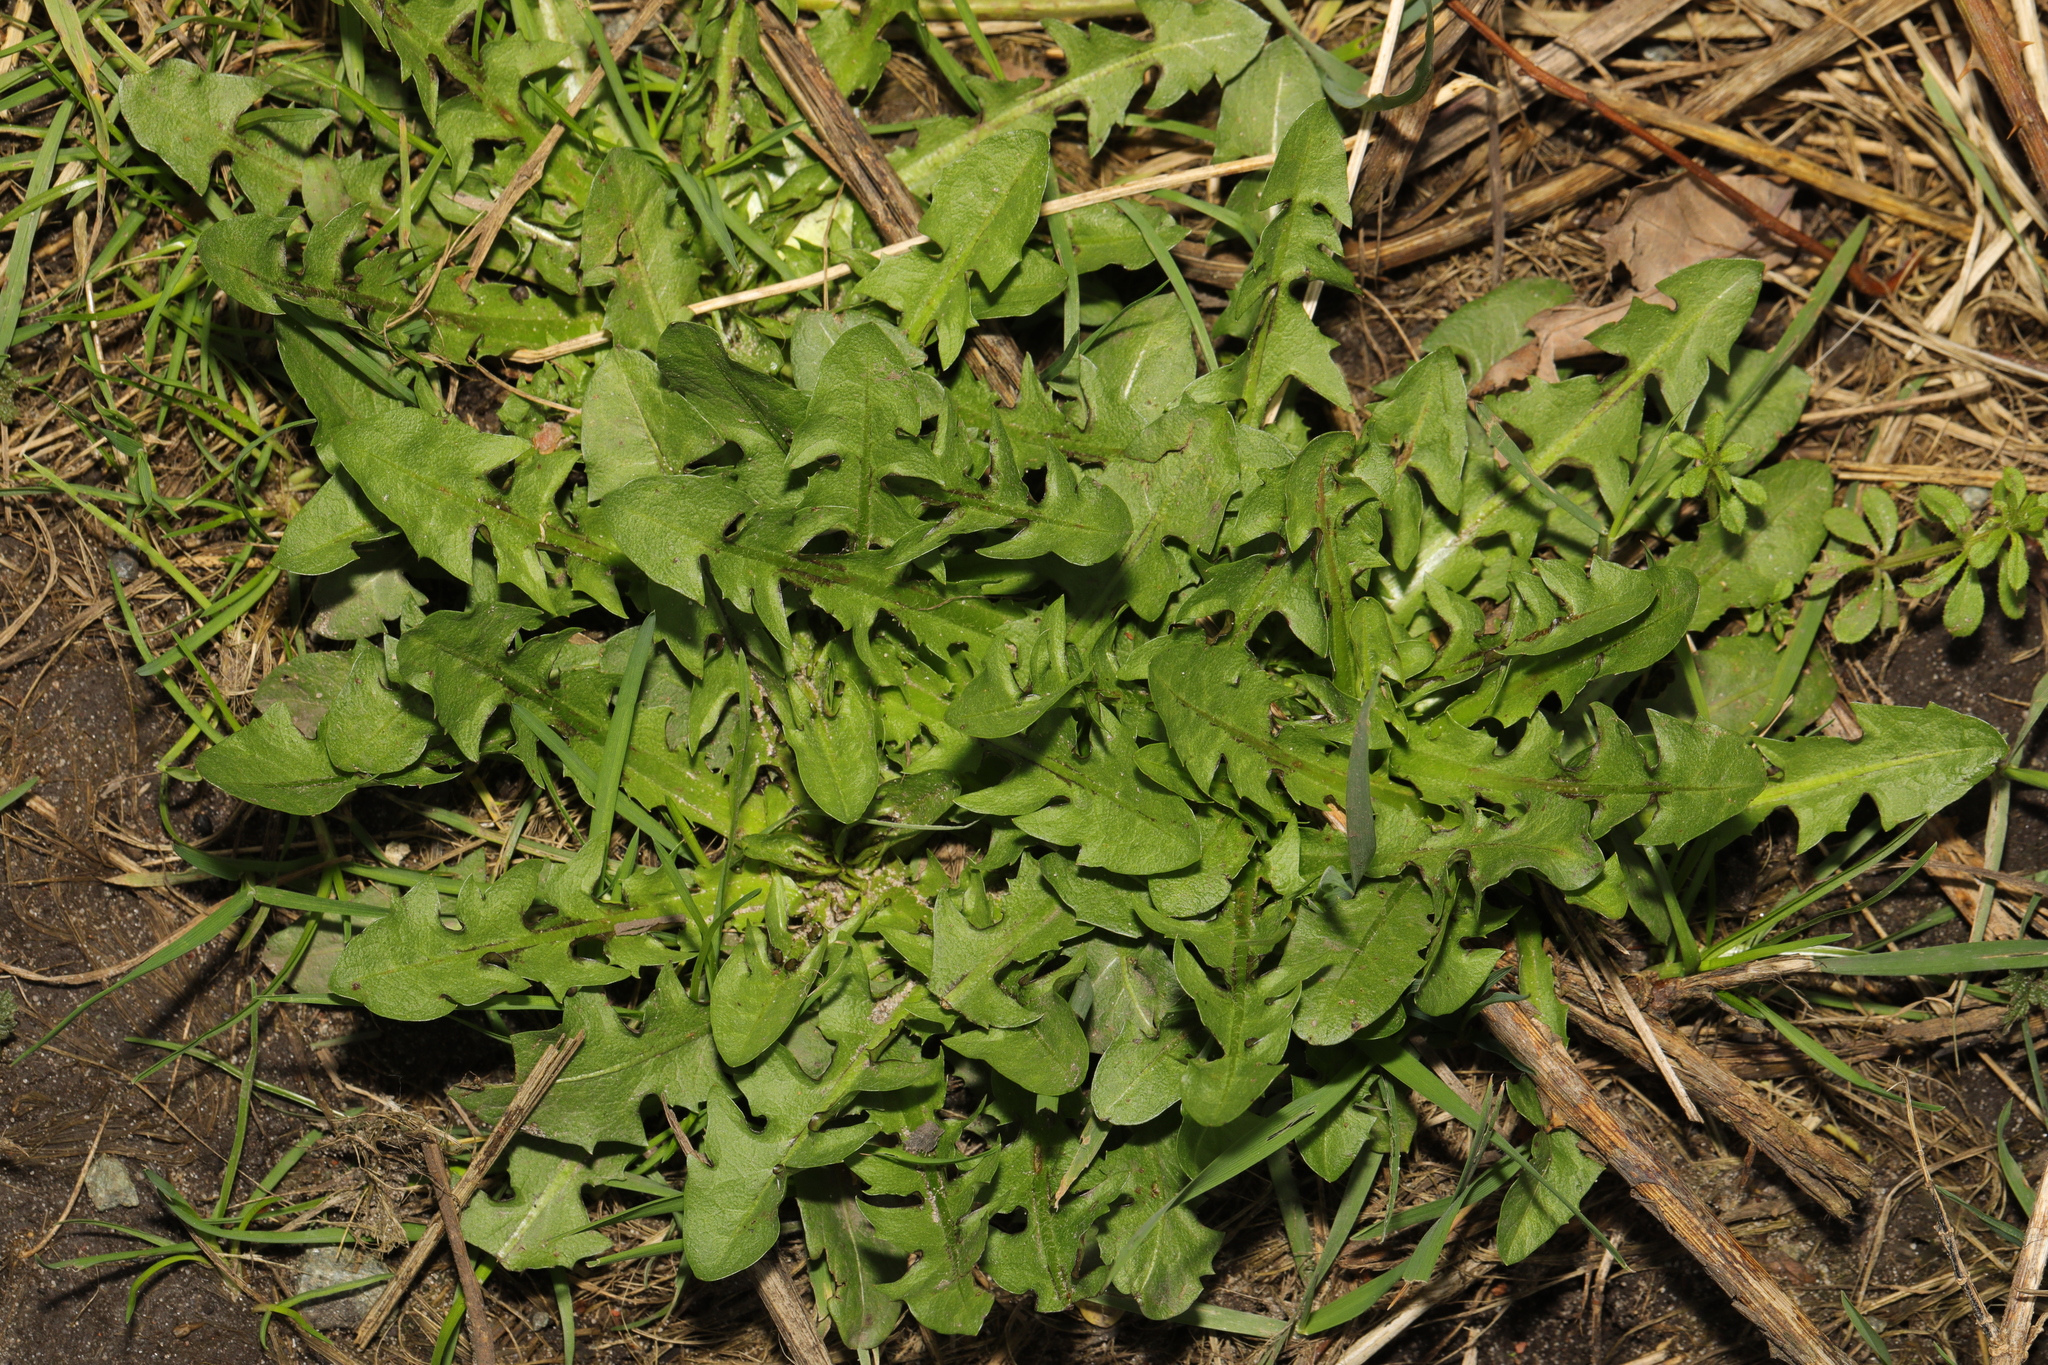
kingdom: Plantae
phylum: Tracheophyta
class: Magnoliopsida
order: Asterales
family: Asteraceae
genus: Taraxacum
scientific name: Taraxacum officinale
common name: Common dandelion
